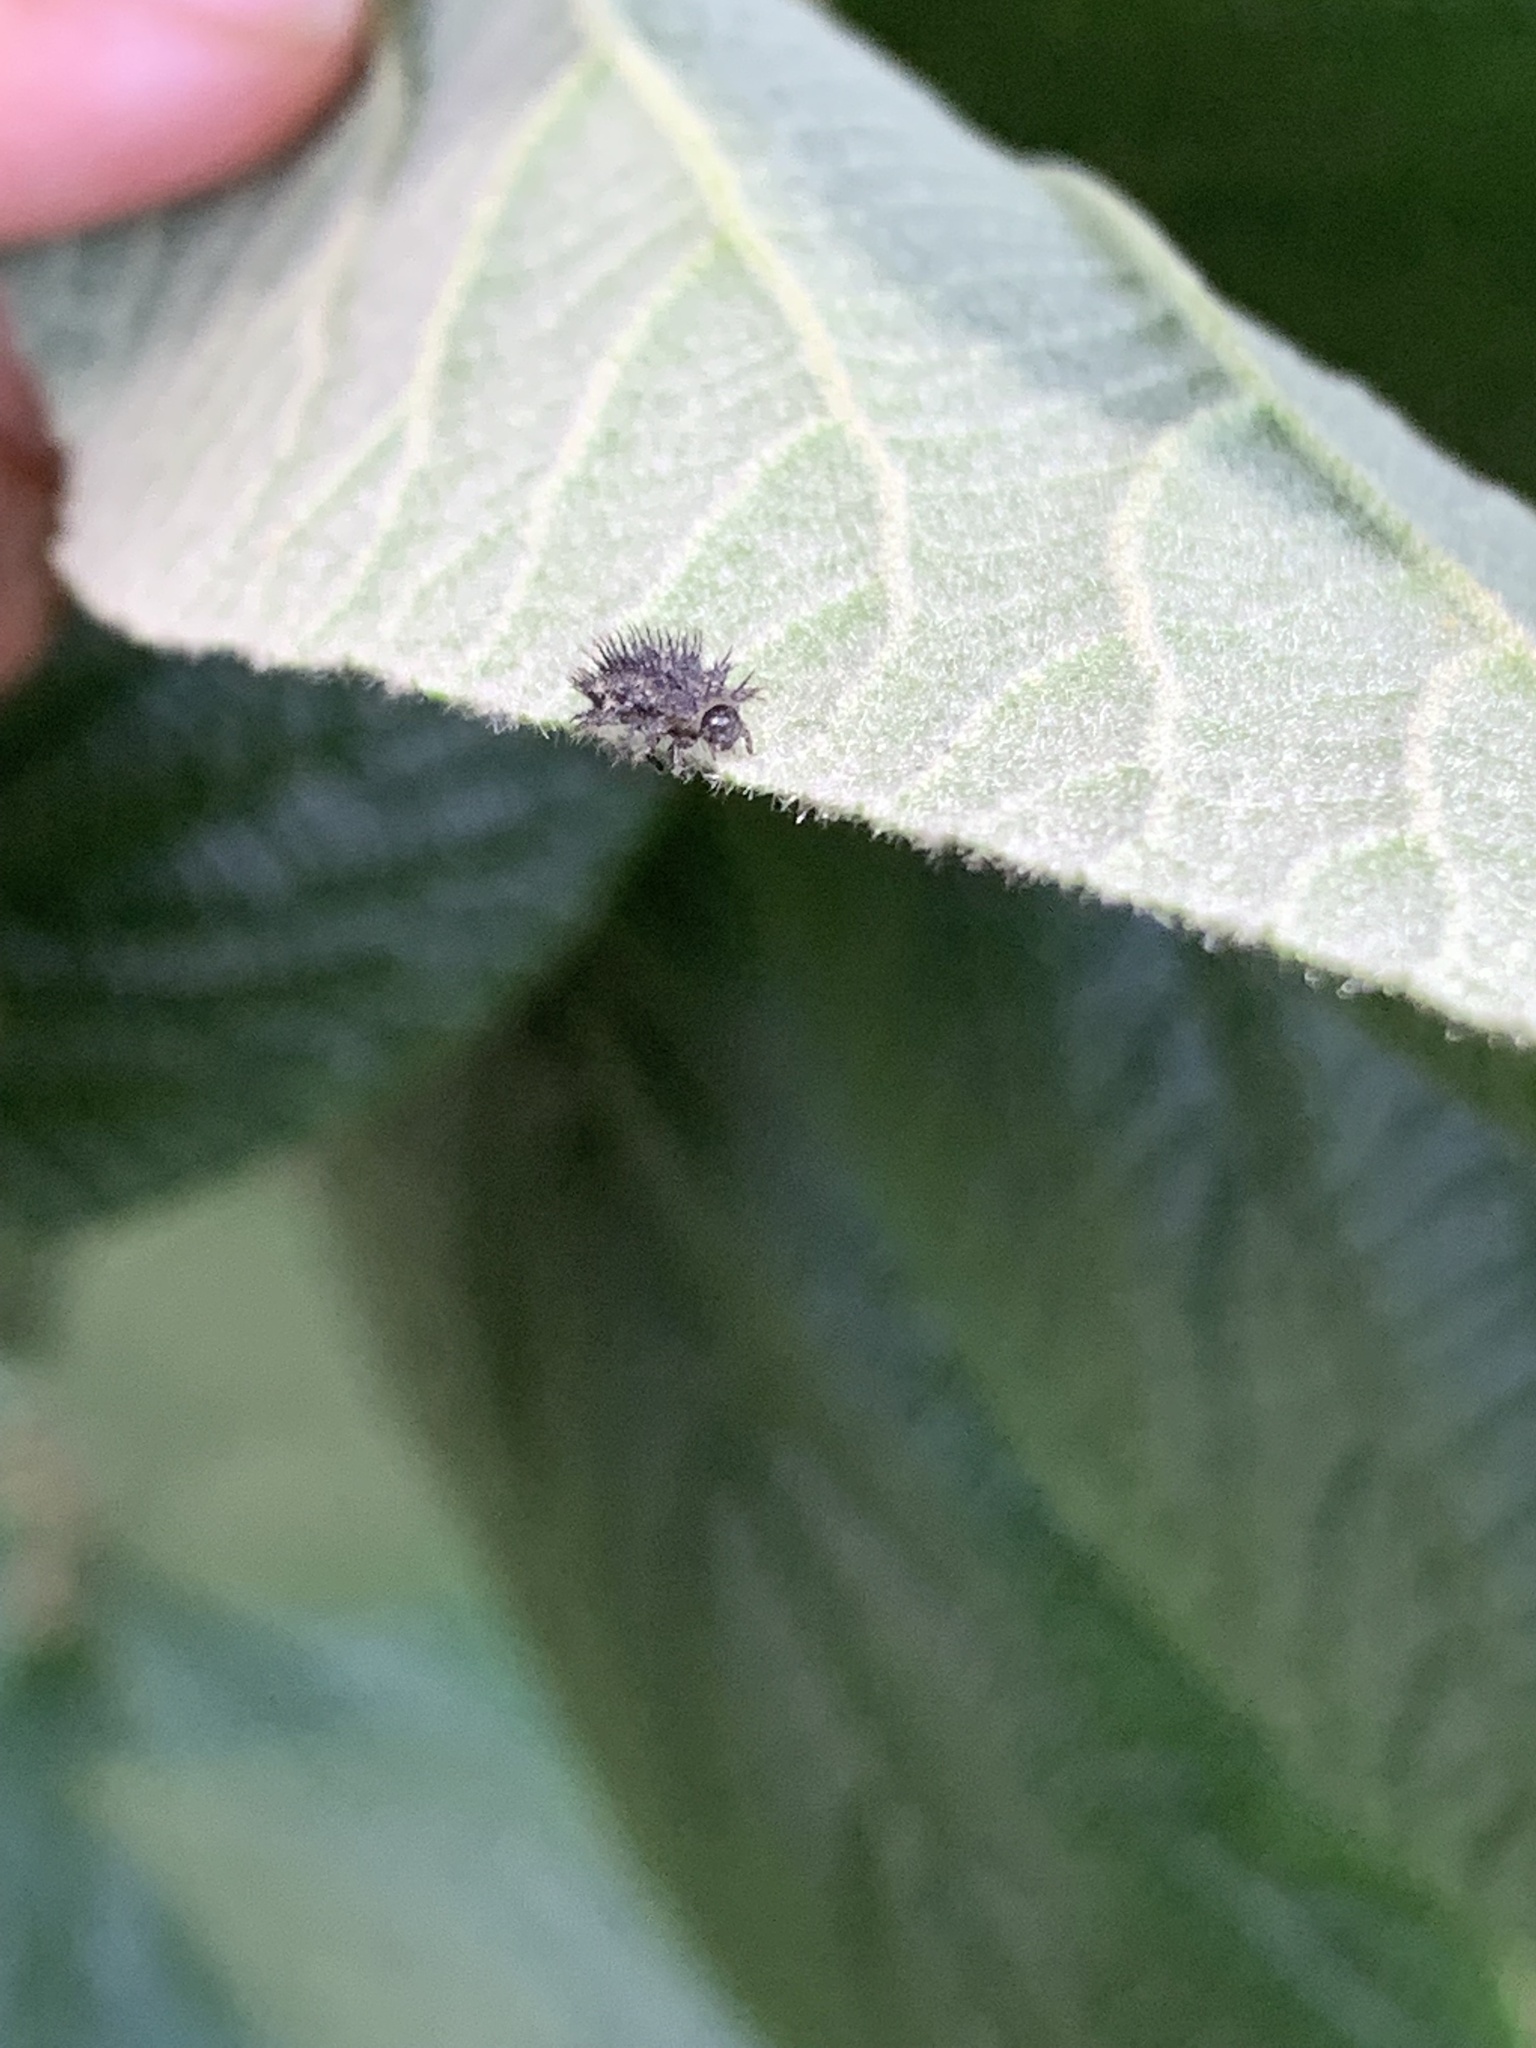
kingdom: Animalia
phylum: Arthropoda
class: Insecta
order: Coleoptera
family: Coccinellidae
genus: Chilocorus
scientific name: Chilocorus renipustulatus
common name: Kidney-spot ladybird
